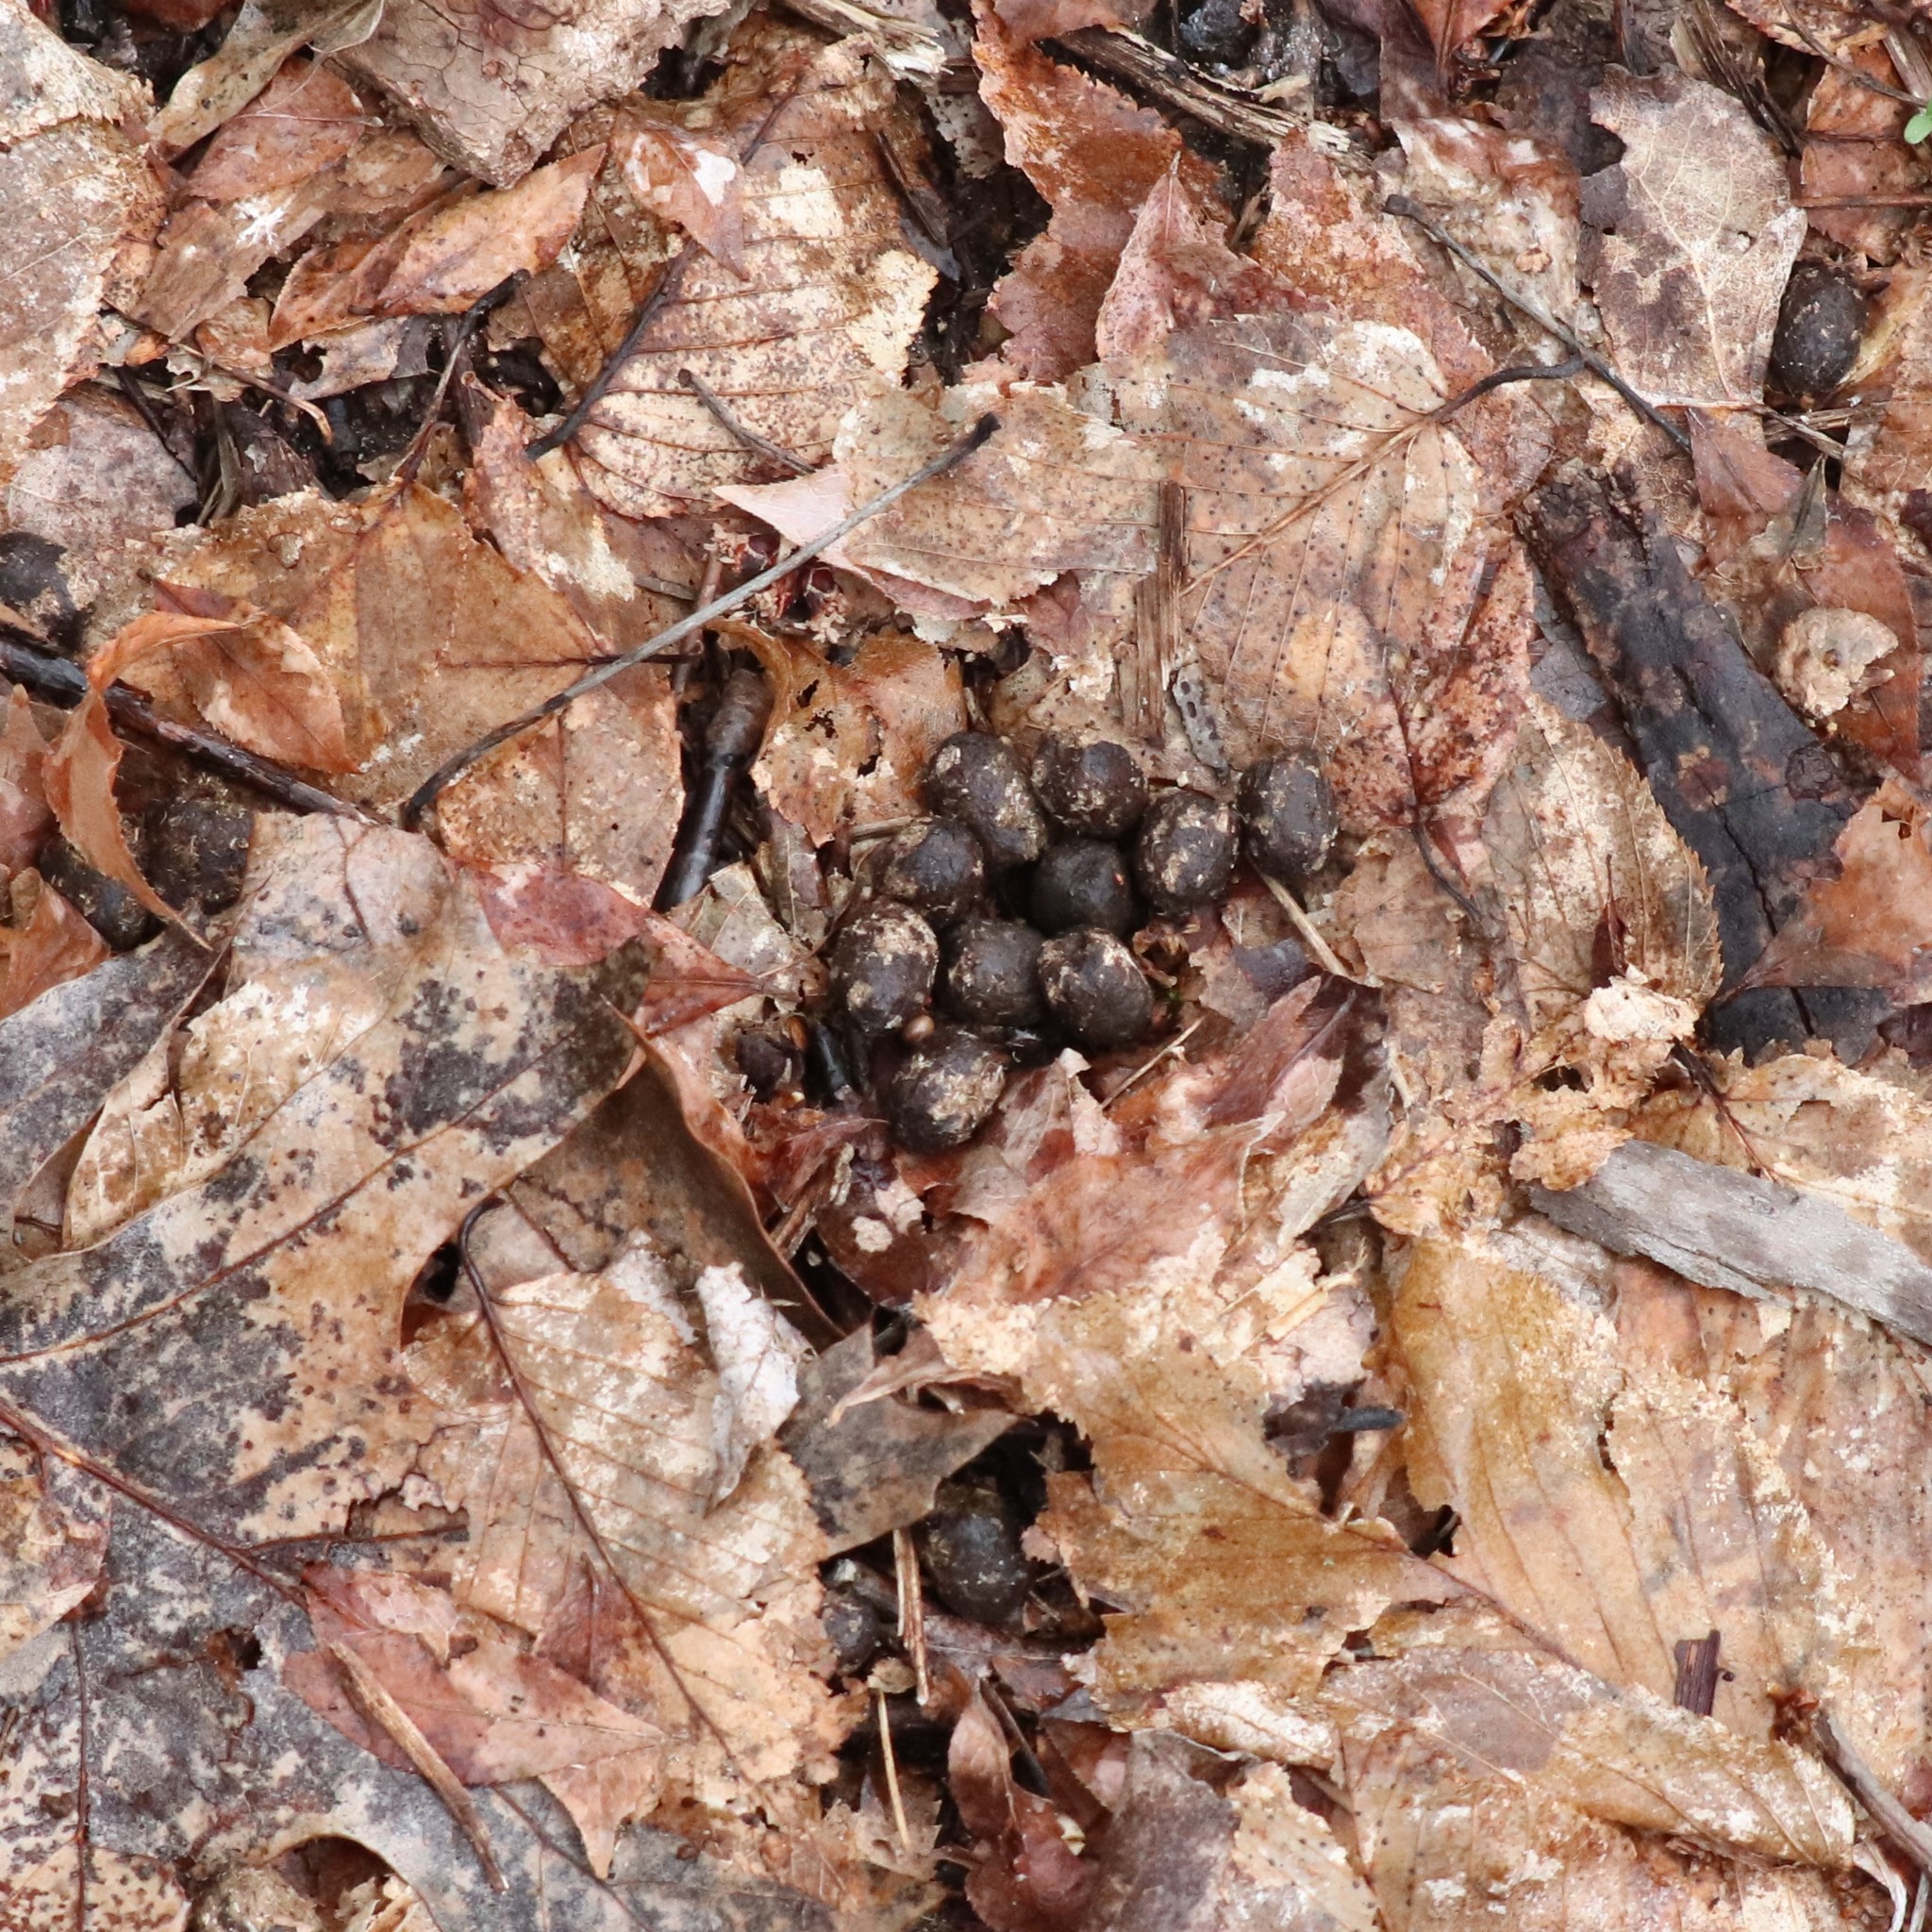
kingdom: Animalia
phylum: Chordata
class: Mammalia
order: Artiodactyla
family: Cervidae
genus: Odocoileus
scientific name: Odocoileus virginianus
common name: White-tailed deer
